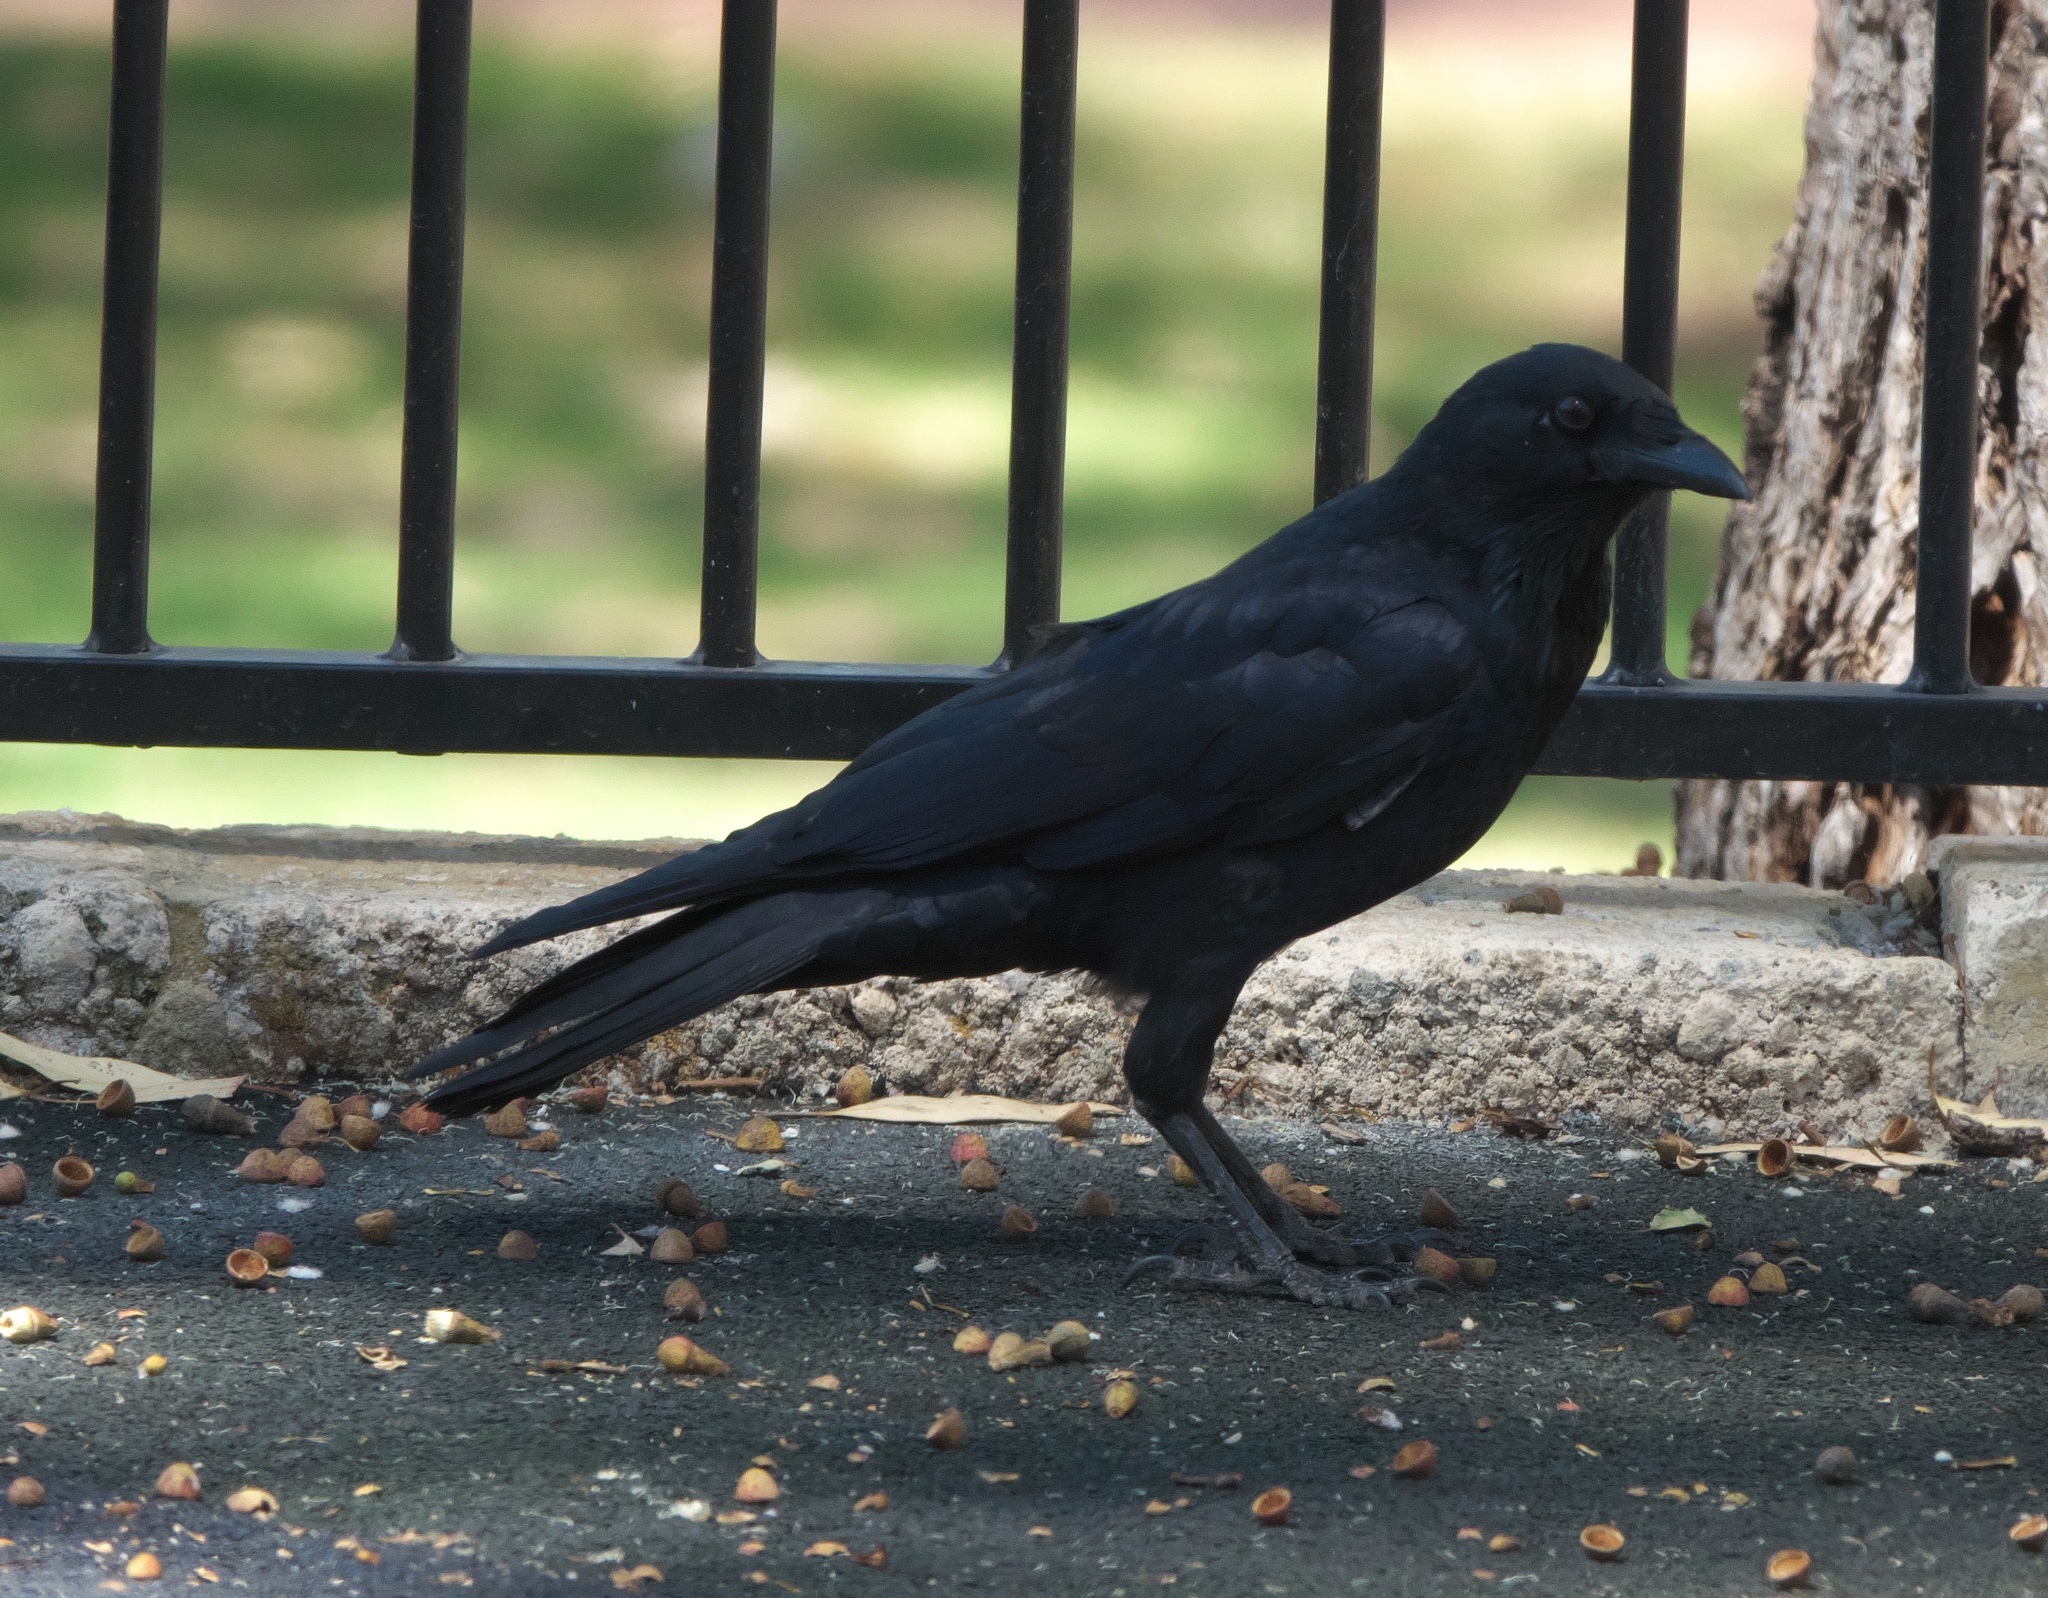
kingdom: Animalia
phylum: Chordata
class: Aves
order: Passeriformes
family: Corvidae
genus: Corvus
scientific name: Corvus coronoides
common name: Australian raven
